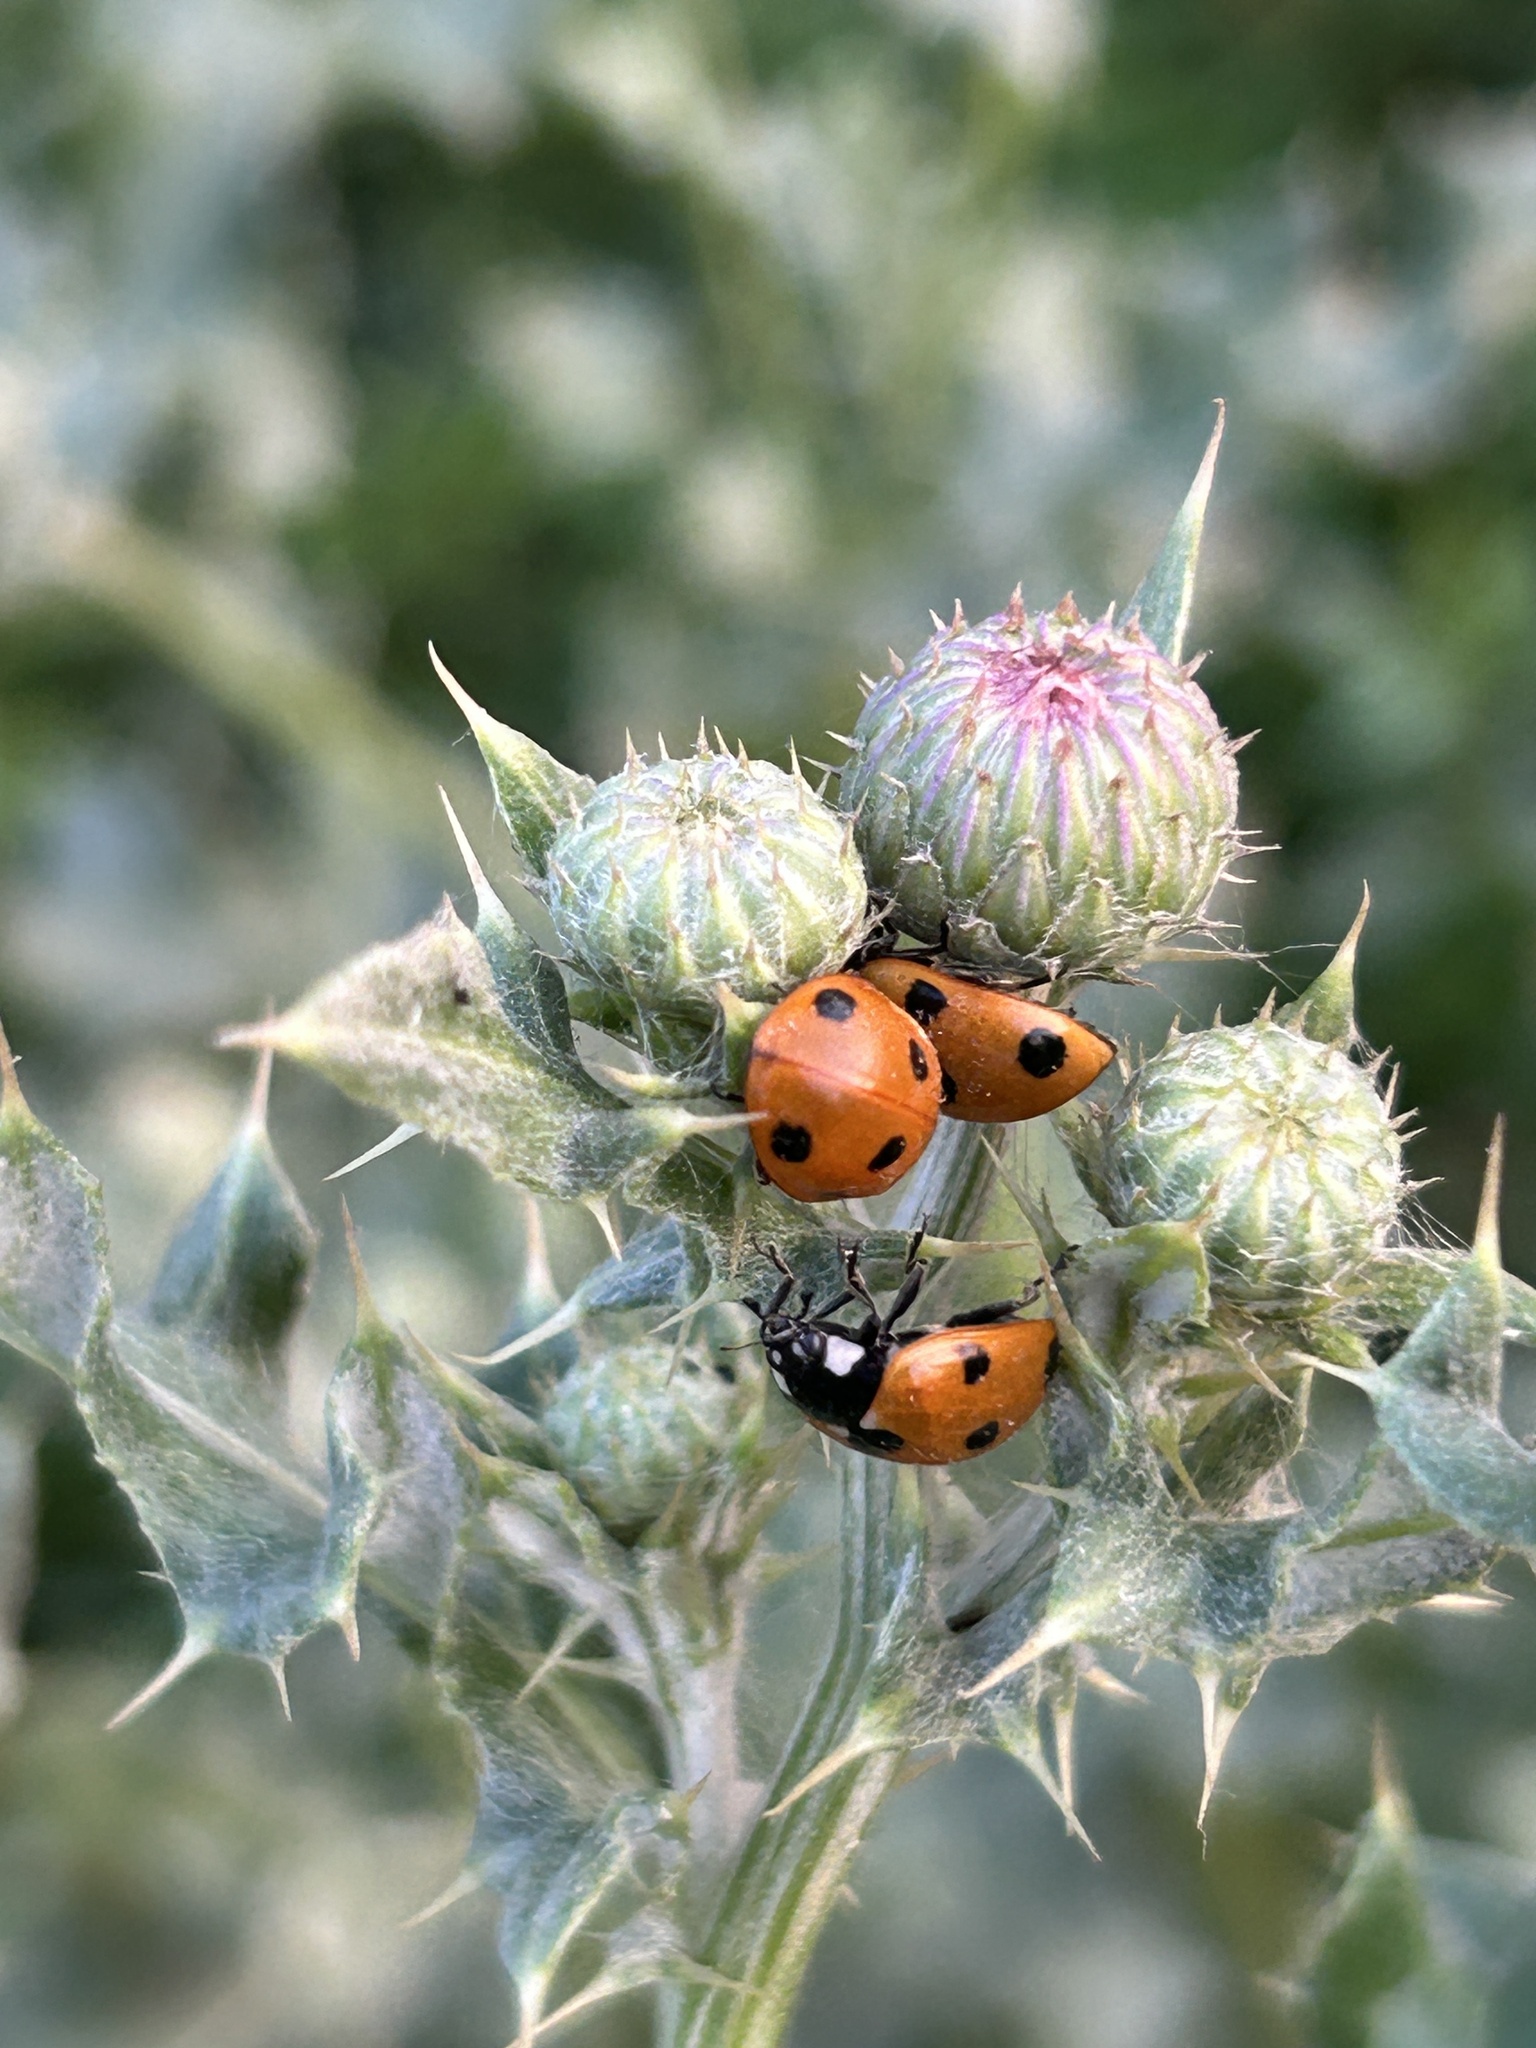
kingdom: Animalia
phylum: Arthropoda
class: Insecta
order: Coleoptera
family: Coccinellidae
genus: Coccinella
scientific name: Coccinella septempunctata
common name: Sevenspotted lady beetle
